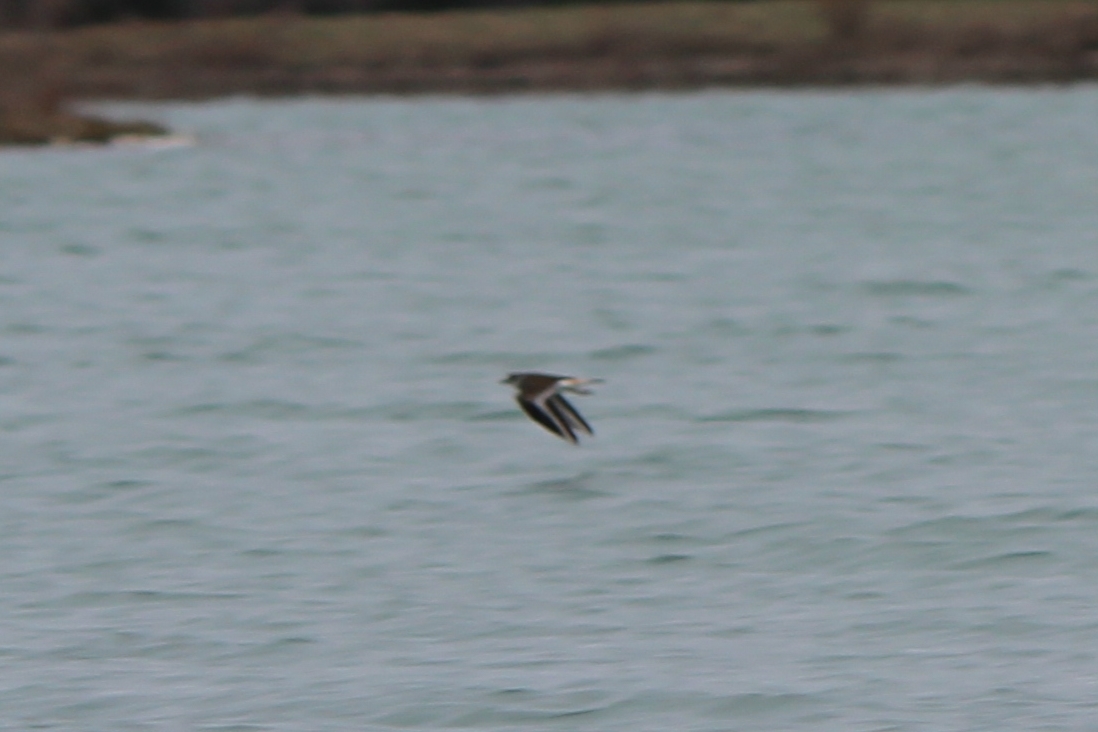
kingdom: Animalia
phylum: Chordata
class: Aves
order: Charadriiformes
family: Charadriidae
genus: Charadrius
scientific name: Charadrius vociferus
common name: Killdeer
